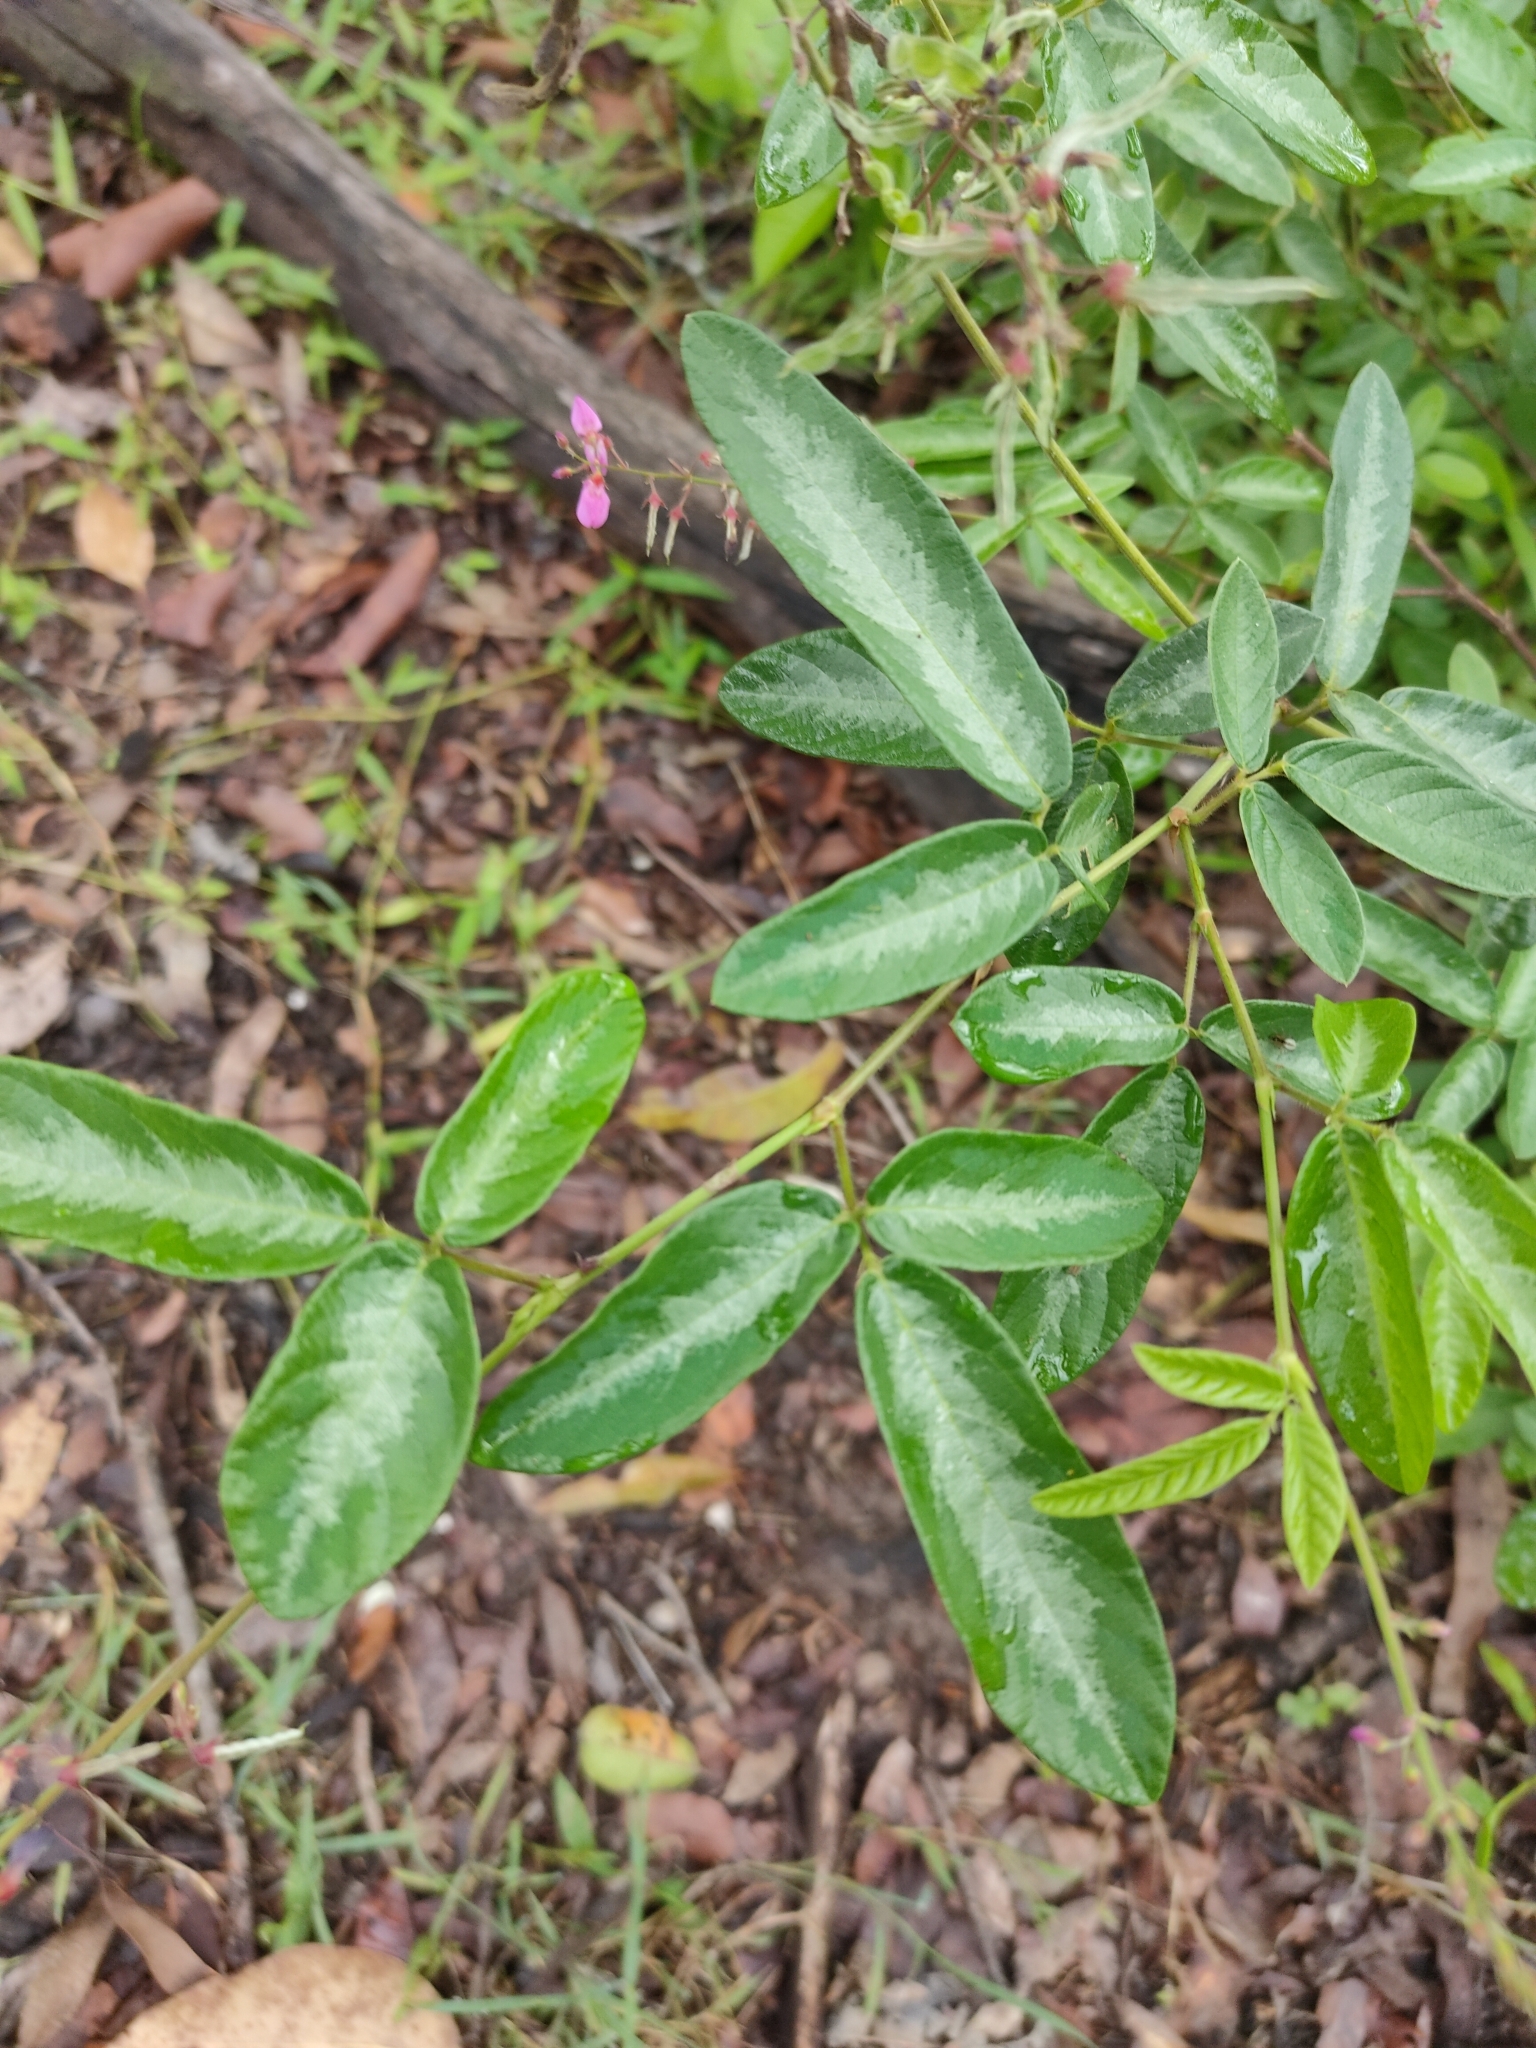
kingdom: Plantae
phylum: Tracheophyta
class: Magnoliopsida
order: Fabales
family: Fabaceae
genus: Desmodium
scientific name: Desmodium incanum
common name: Tickclover
